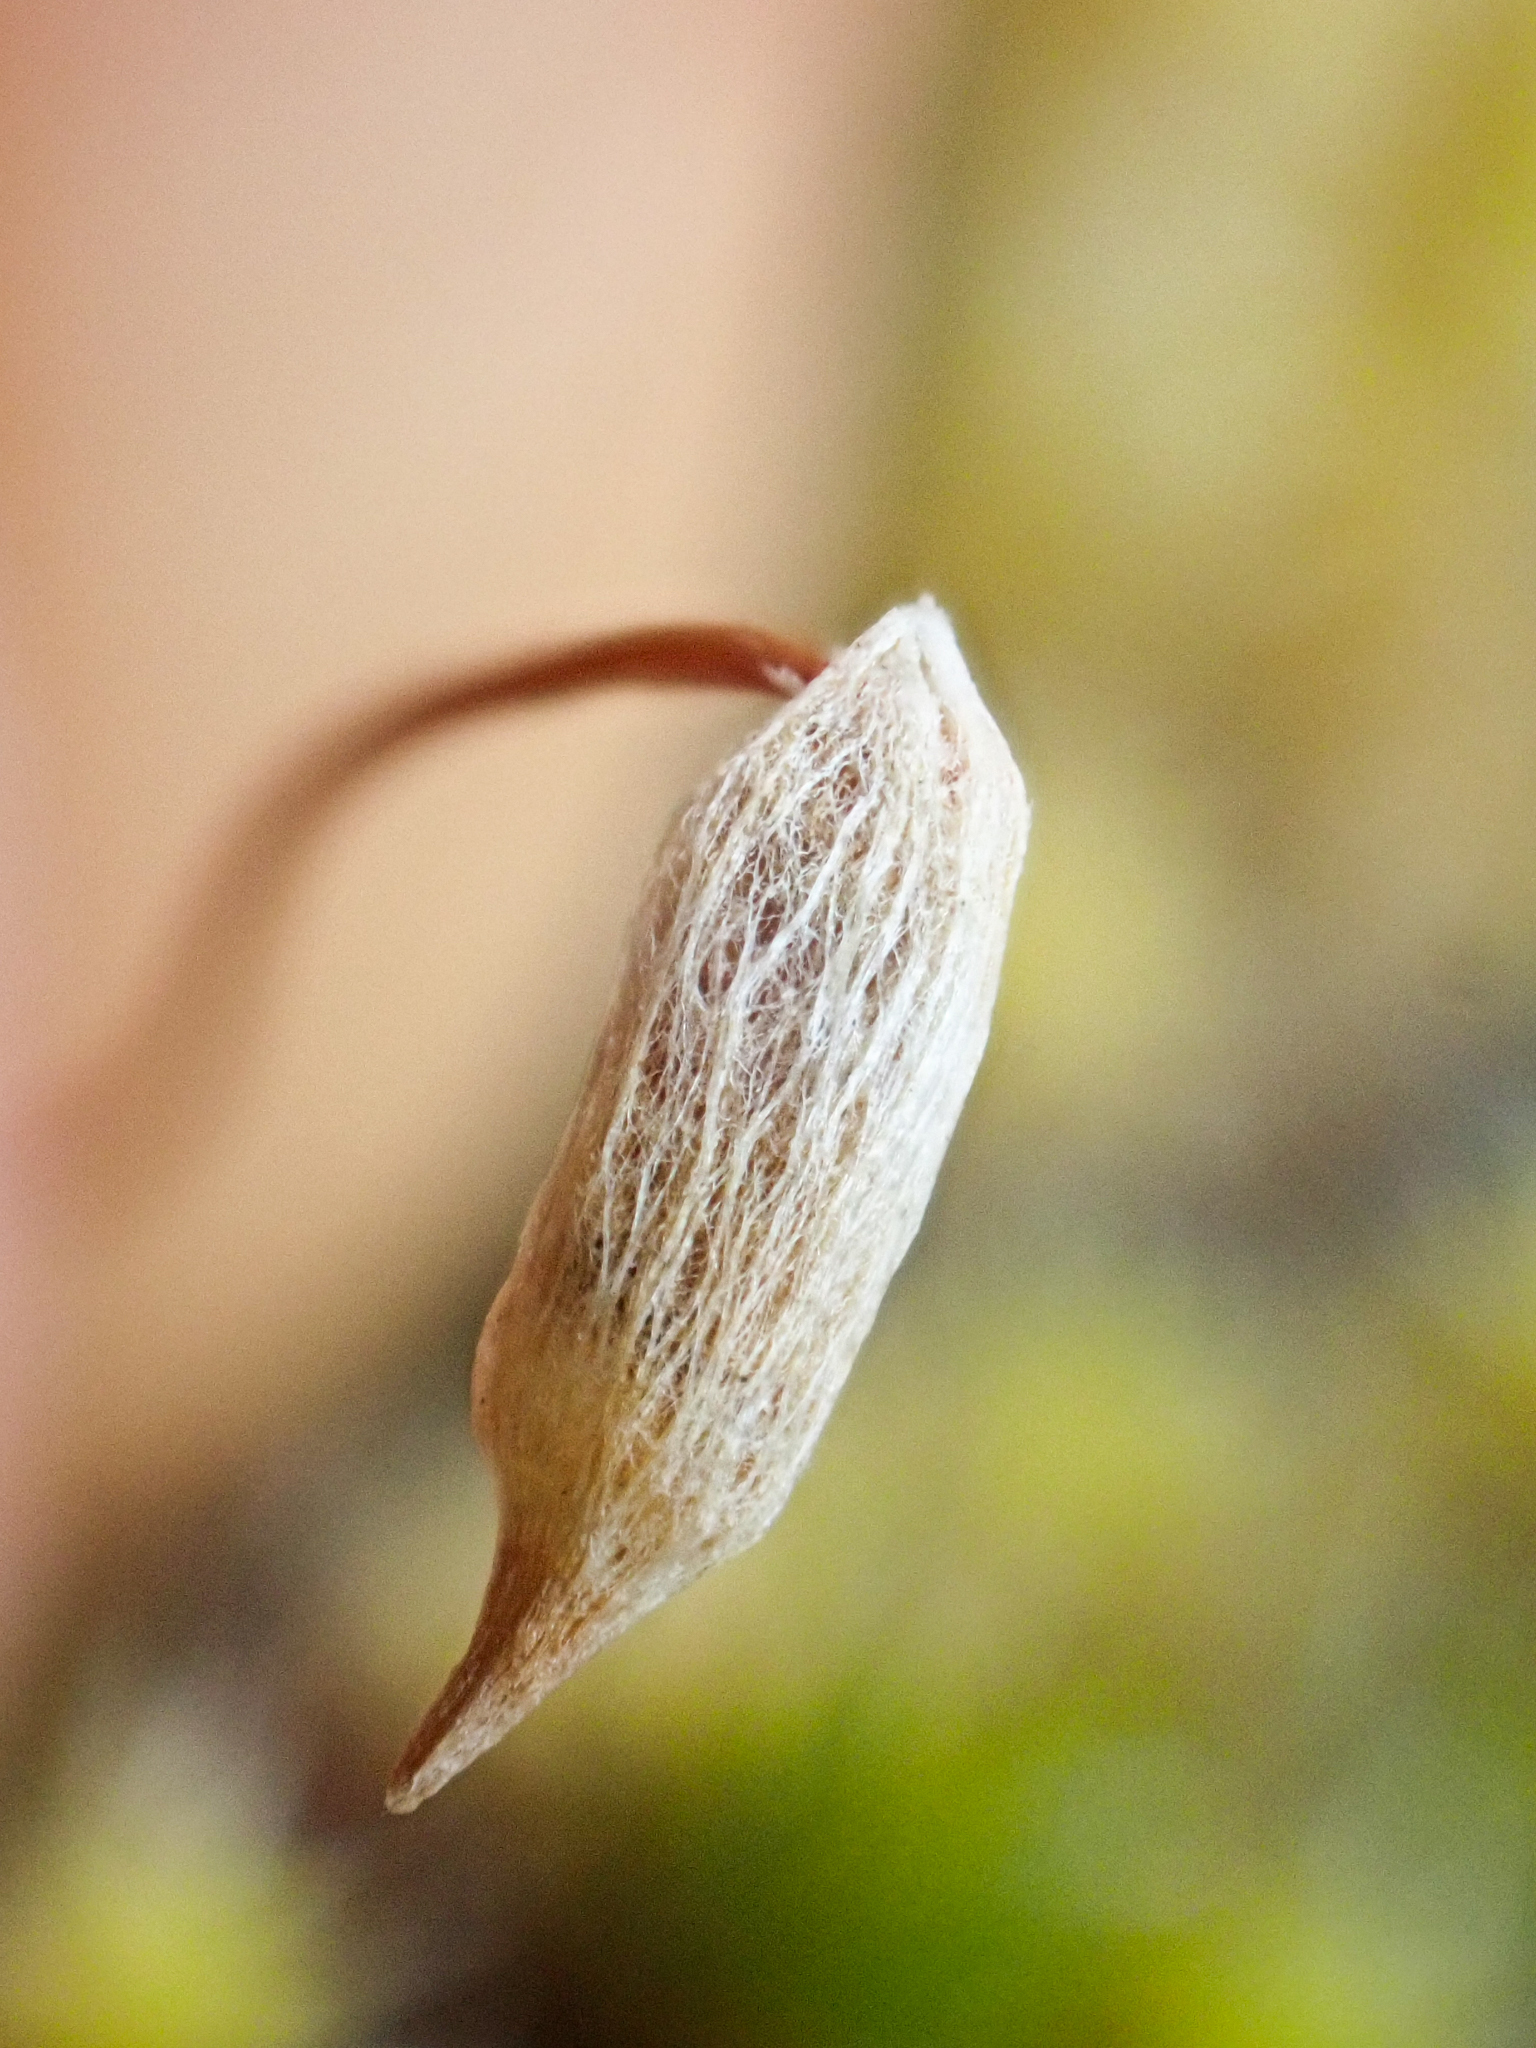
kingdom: Plantae
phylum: Bryophyta
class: Polytrichopsida
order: Polytrichales
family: Polytrichaceae
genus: Polytrichum
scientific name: Polytrichum piliferum
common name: Bristly haircap
